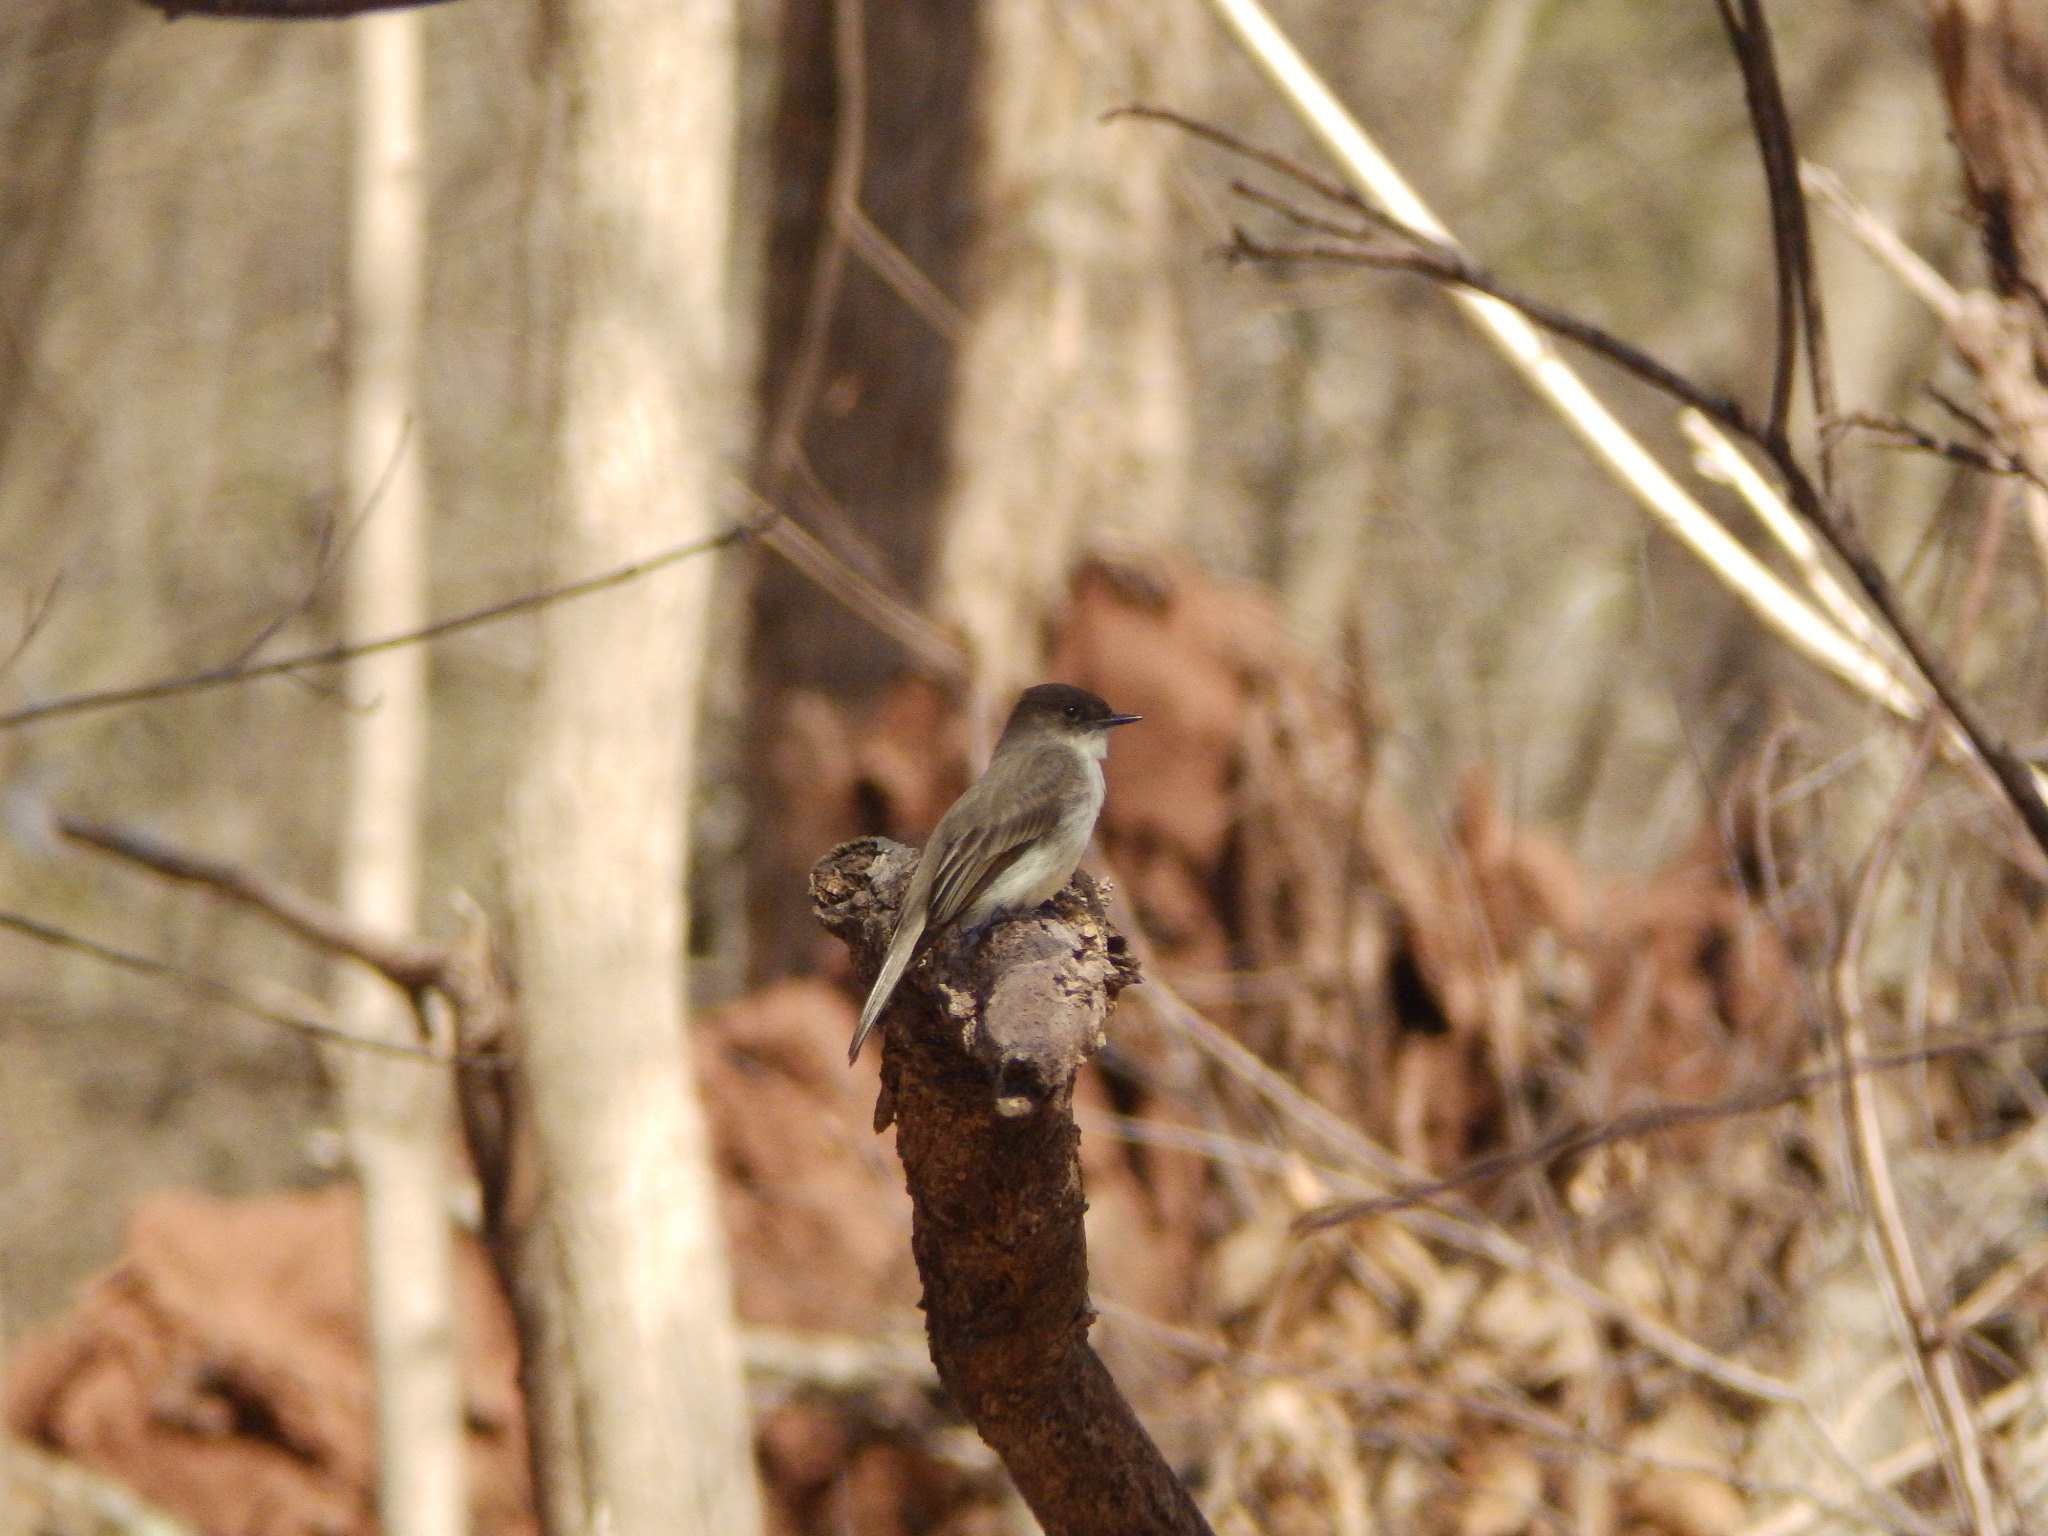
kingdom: Animalia
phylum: Chordata
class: Aves
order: Passeriformes
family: Tyrannidae
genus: Sayornis
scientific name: Sayornis phoebe
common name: Eastern phoebe
